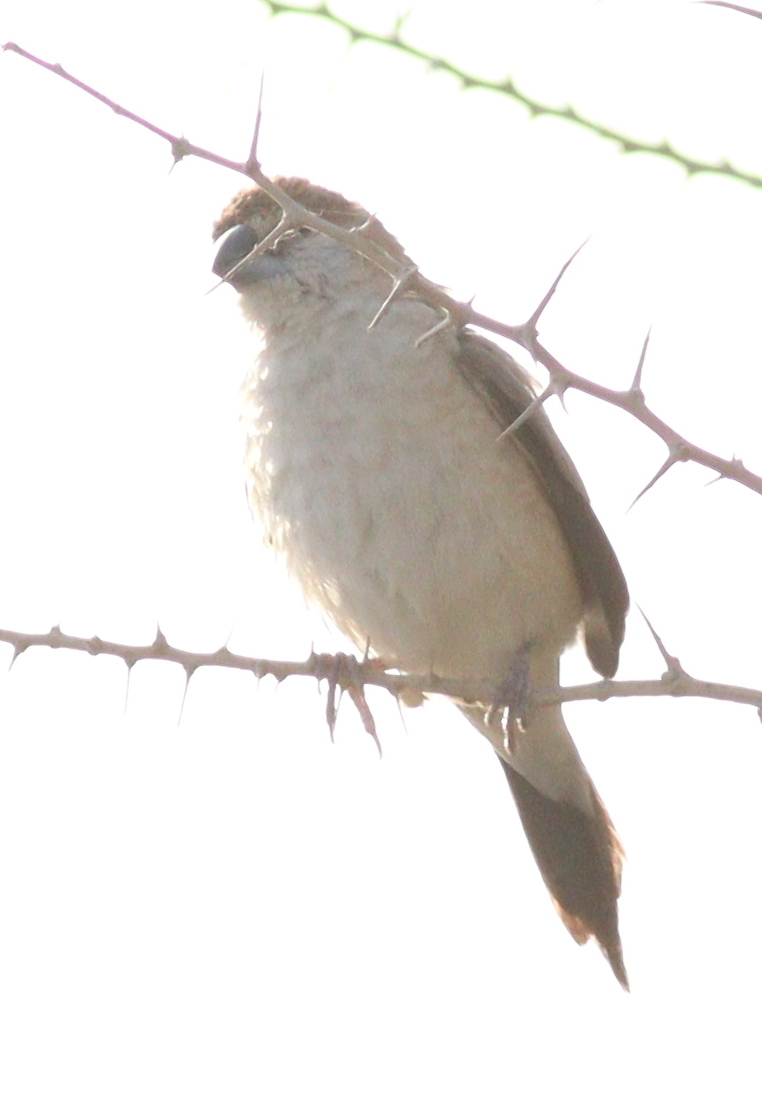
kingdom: Animalia
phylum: Chordata
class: Aves
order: Passeriformes
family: Estrildidae
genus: Euodice
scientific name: Euodice malabarica
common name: Indian silverbill
